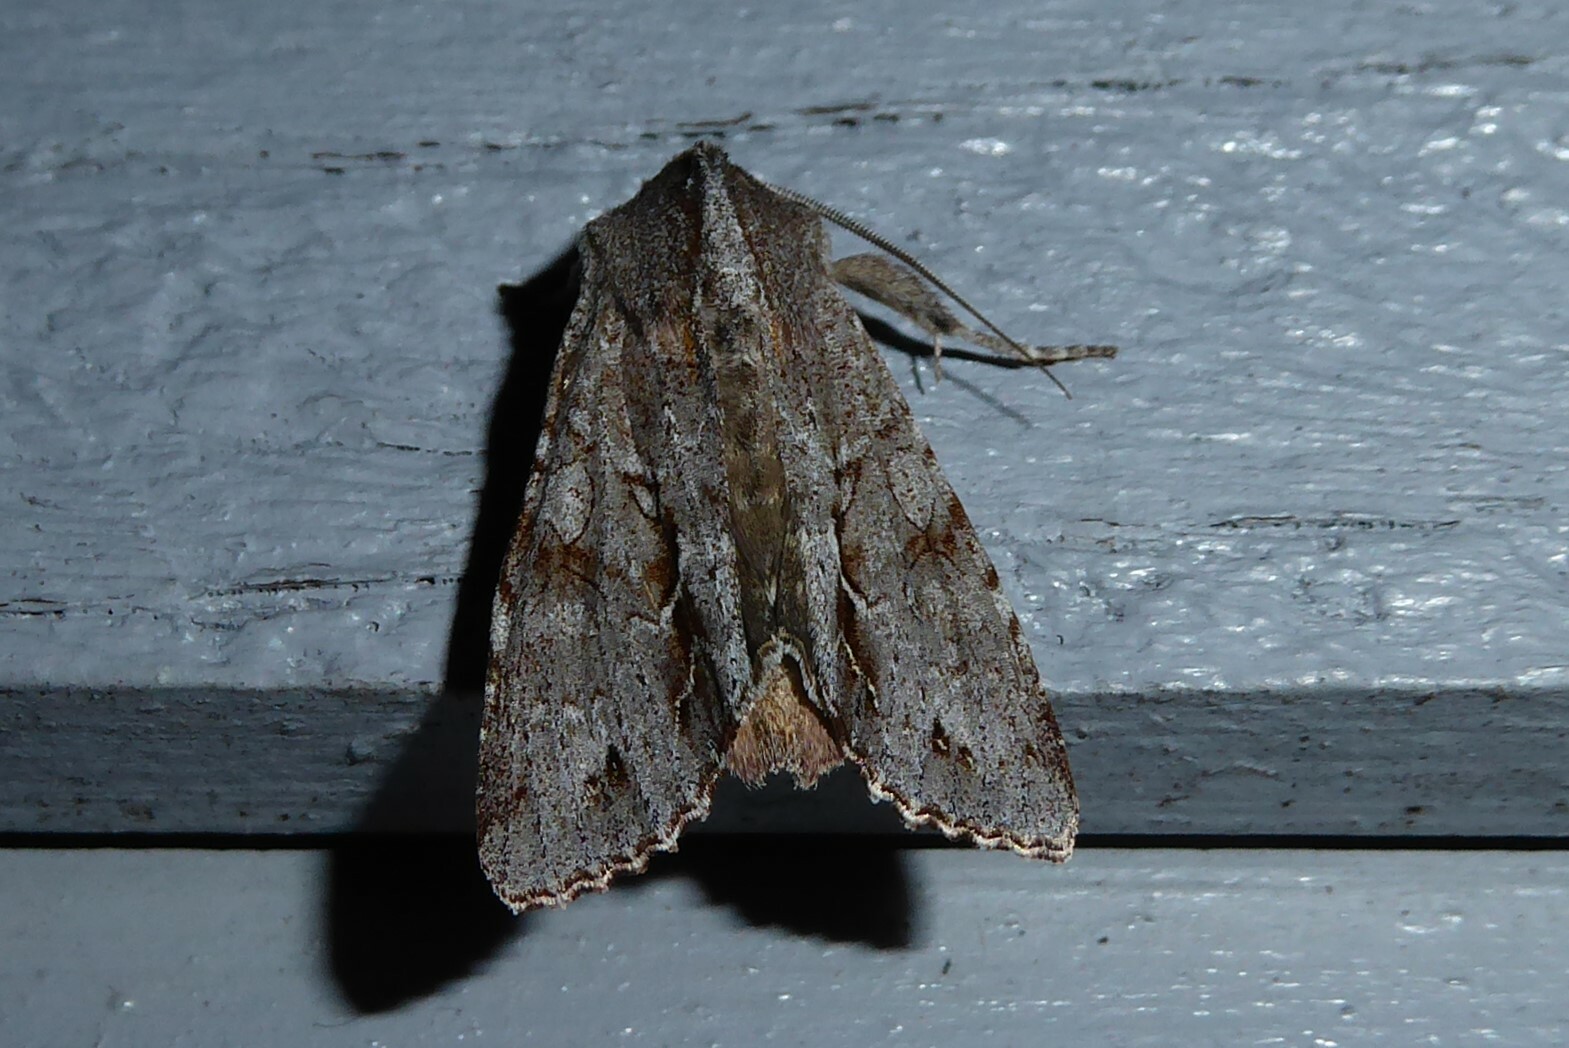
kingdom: Animalia
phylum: Arthropoda
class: Insecta
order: Lepidoptera
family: Noctuidae
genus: Ichneutica
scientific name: Ichneutica
